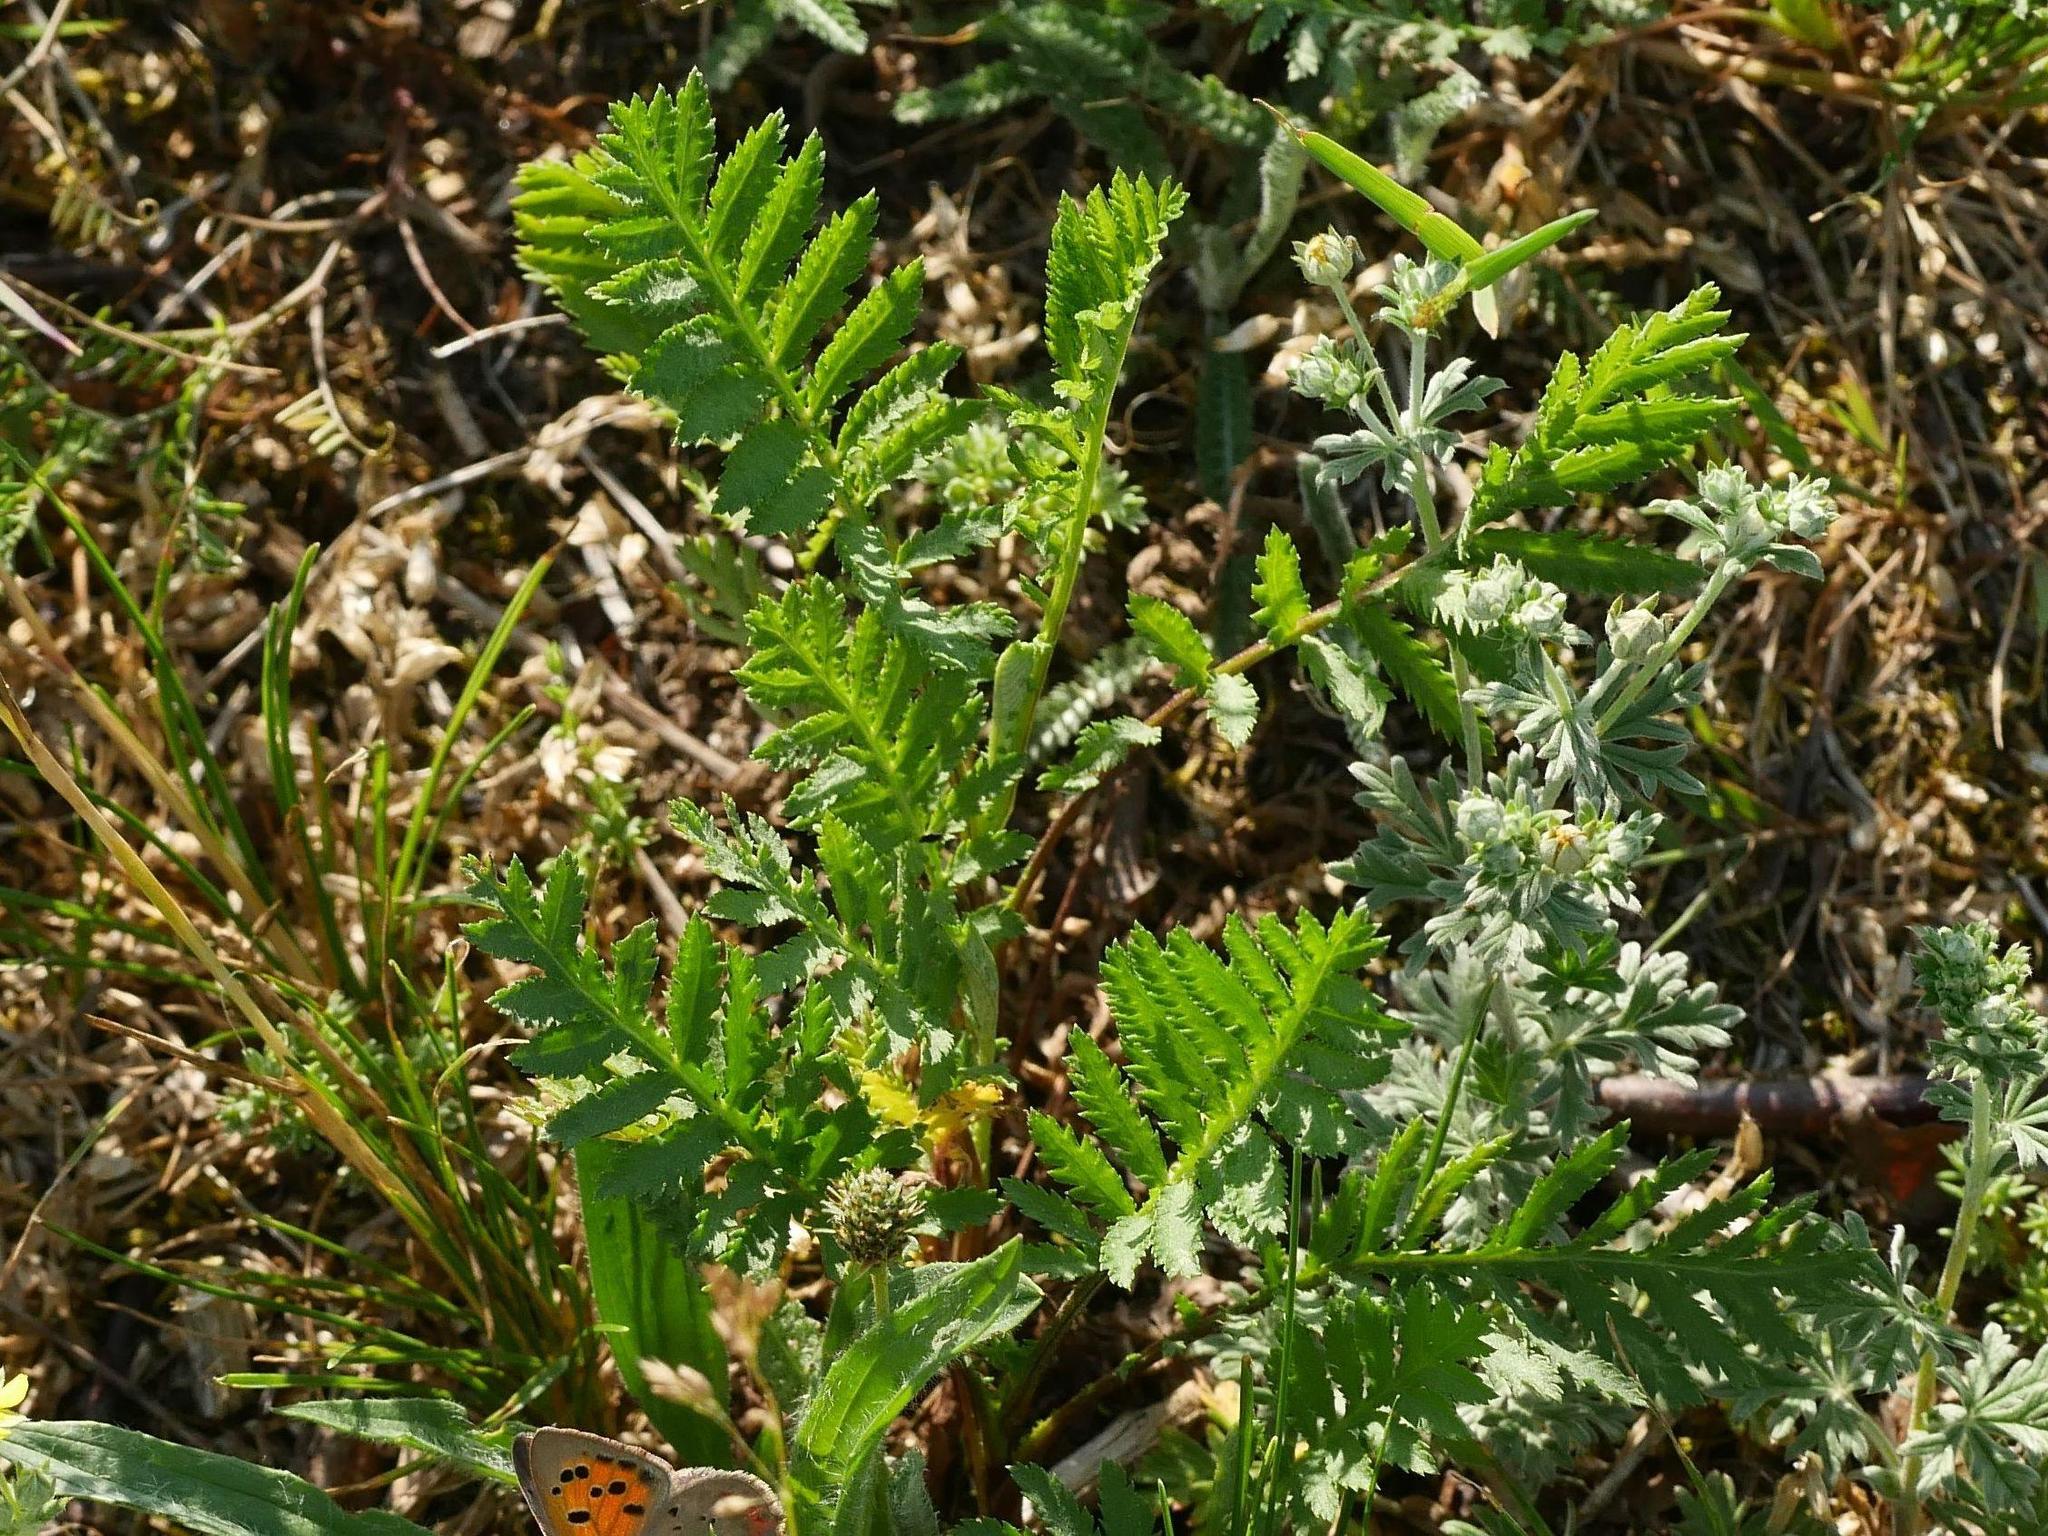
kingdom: Plantae
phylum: Tracheophyta
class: Magnoliopsida
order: Asterales
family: Asteraceae
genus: Tanacetum
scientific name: Tanacetum vulgare
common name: Common tansy
